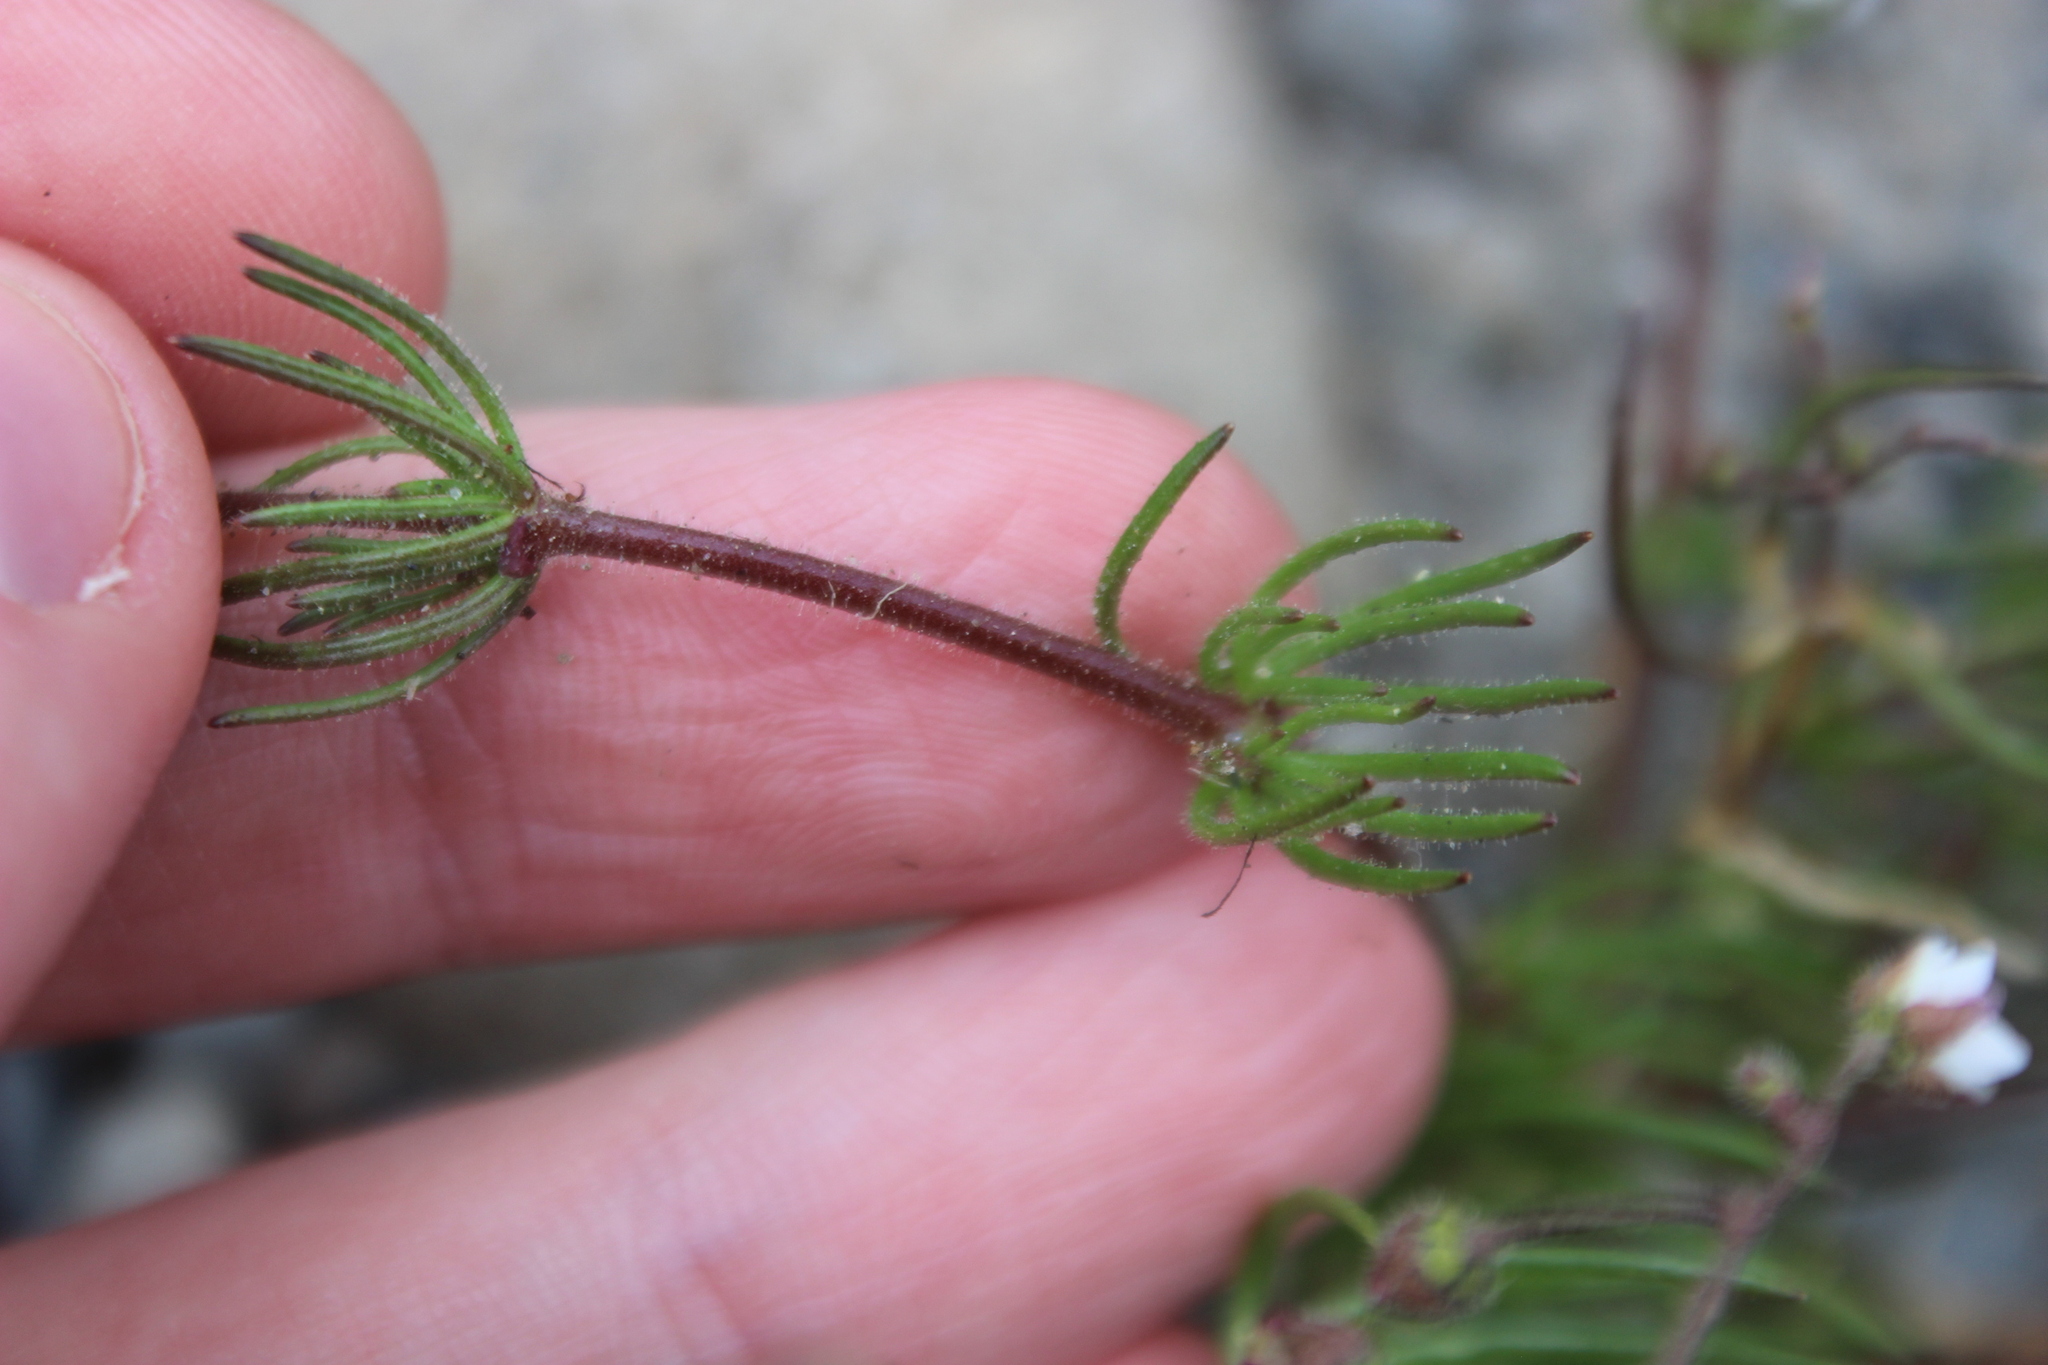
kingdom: Plantae
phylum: Tracheophyta
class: Magnoliopsida
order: Caryophyllales
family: Caryophyllaceae
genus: Spergula
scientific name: Spergula arvensis
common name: Corn spurrey
